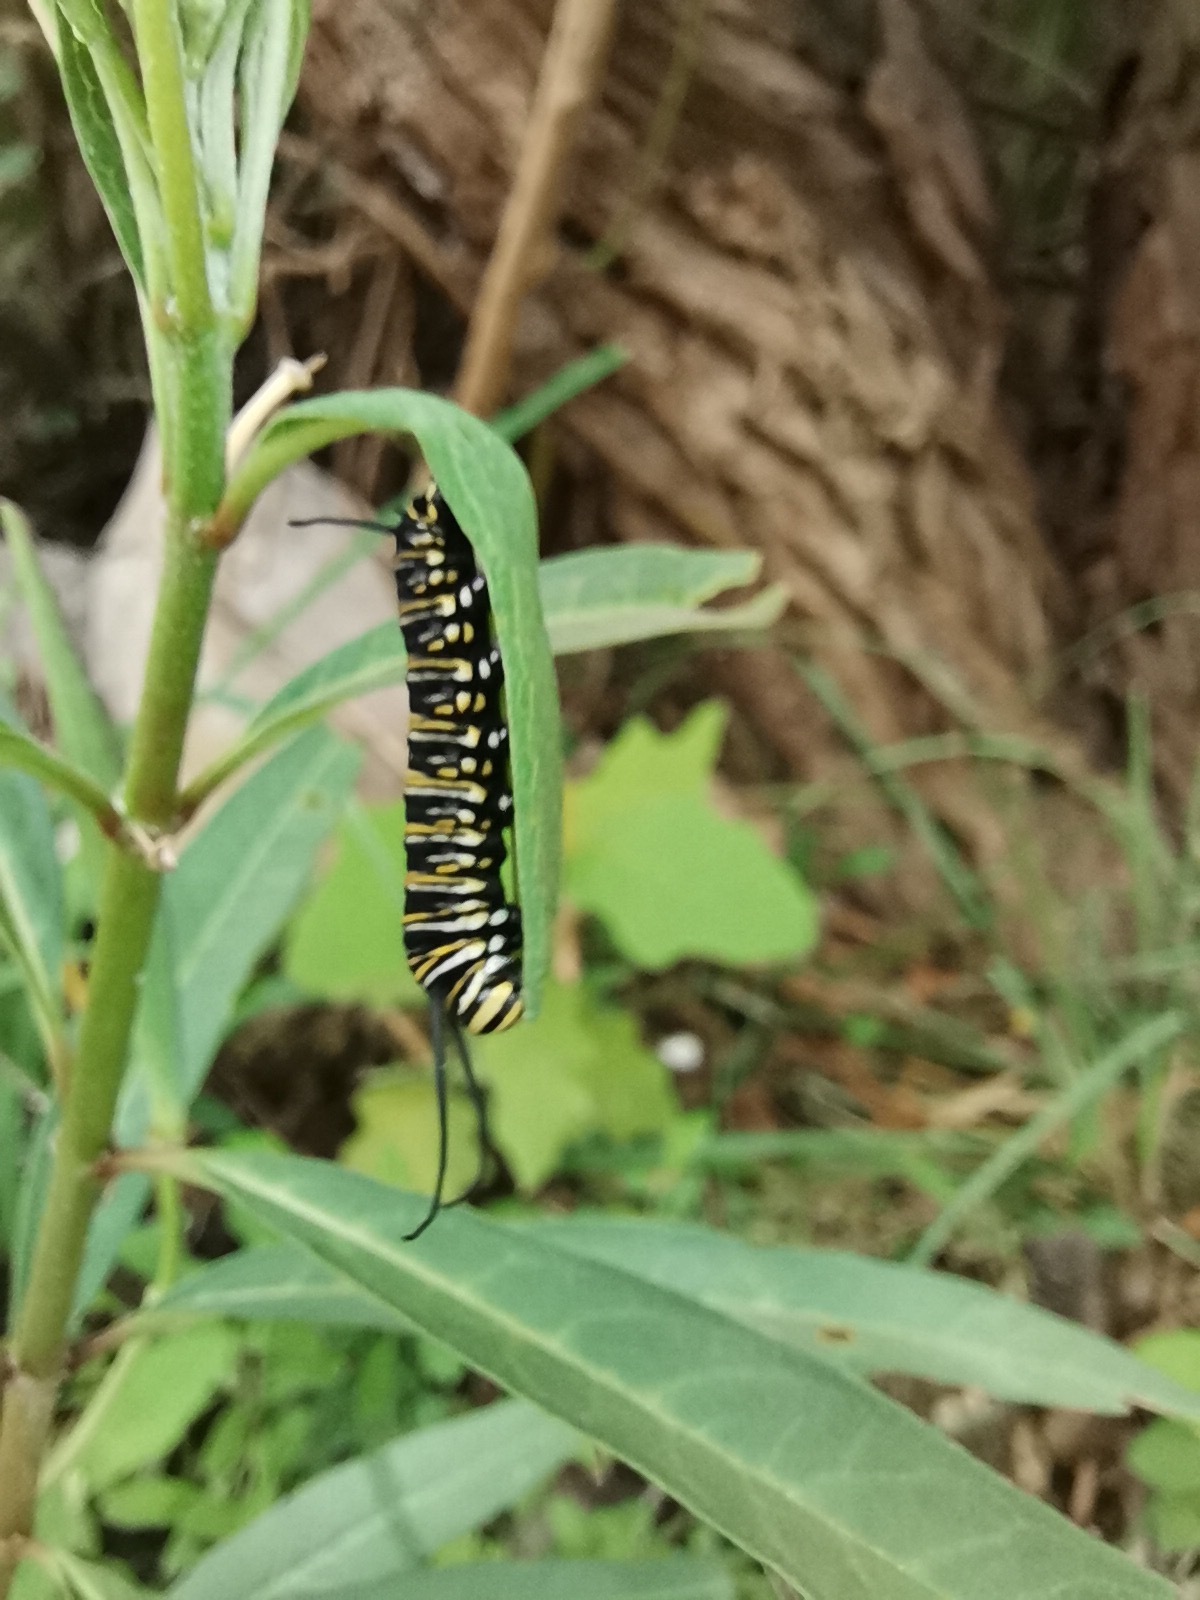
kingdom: Plantae
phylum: Tracheophyta
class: Magnoliopsida
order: Gentianales
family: Apocynaceae
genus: Asclepias
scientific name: Asclepias curassavica
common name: Bloodflower
